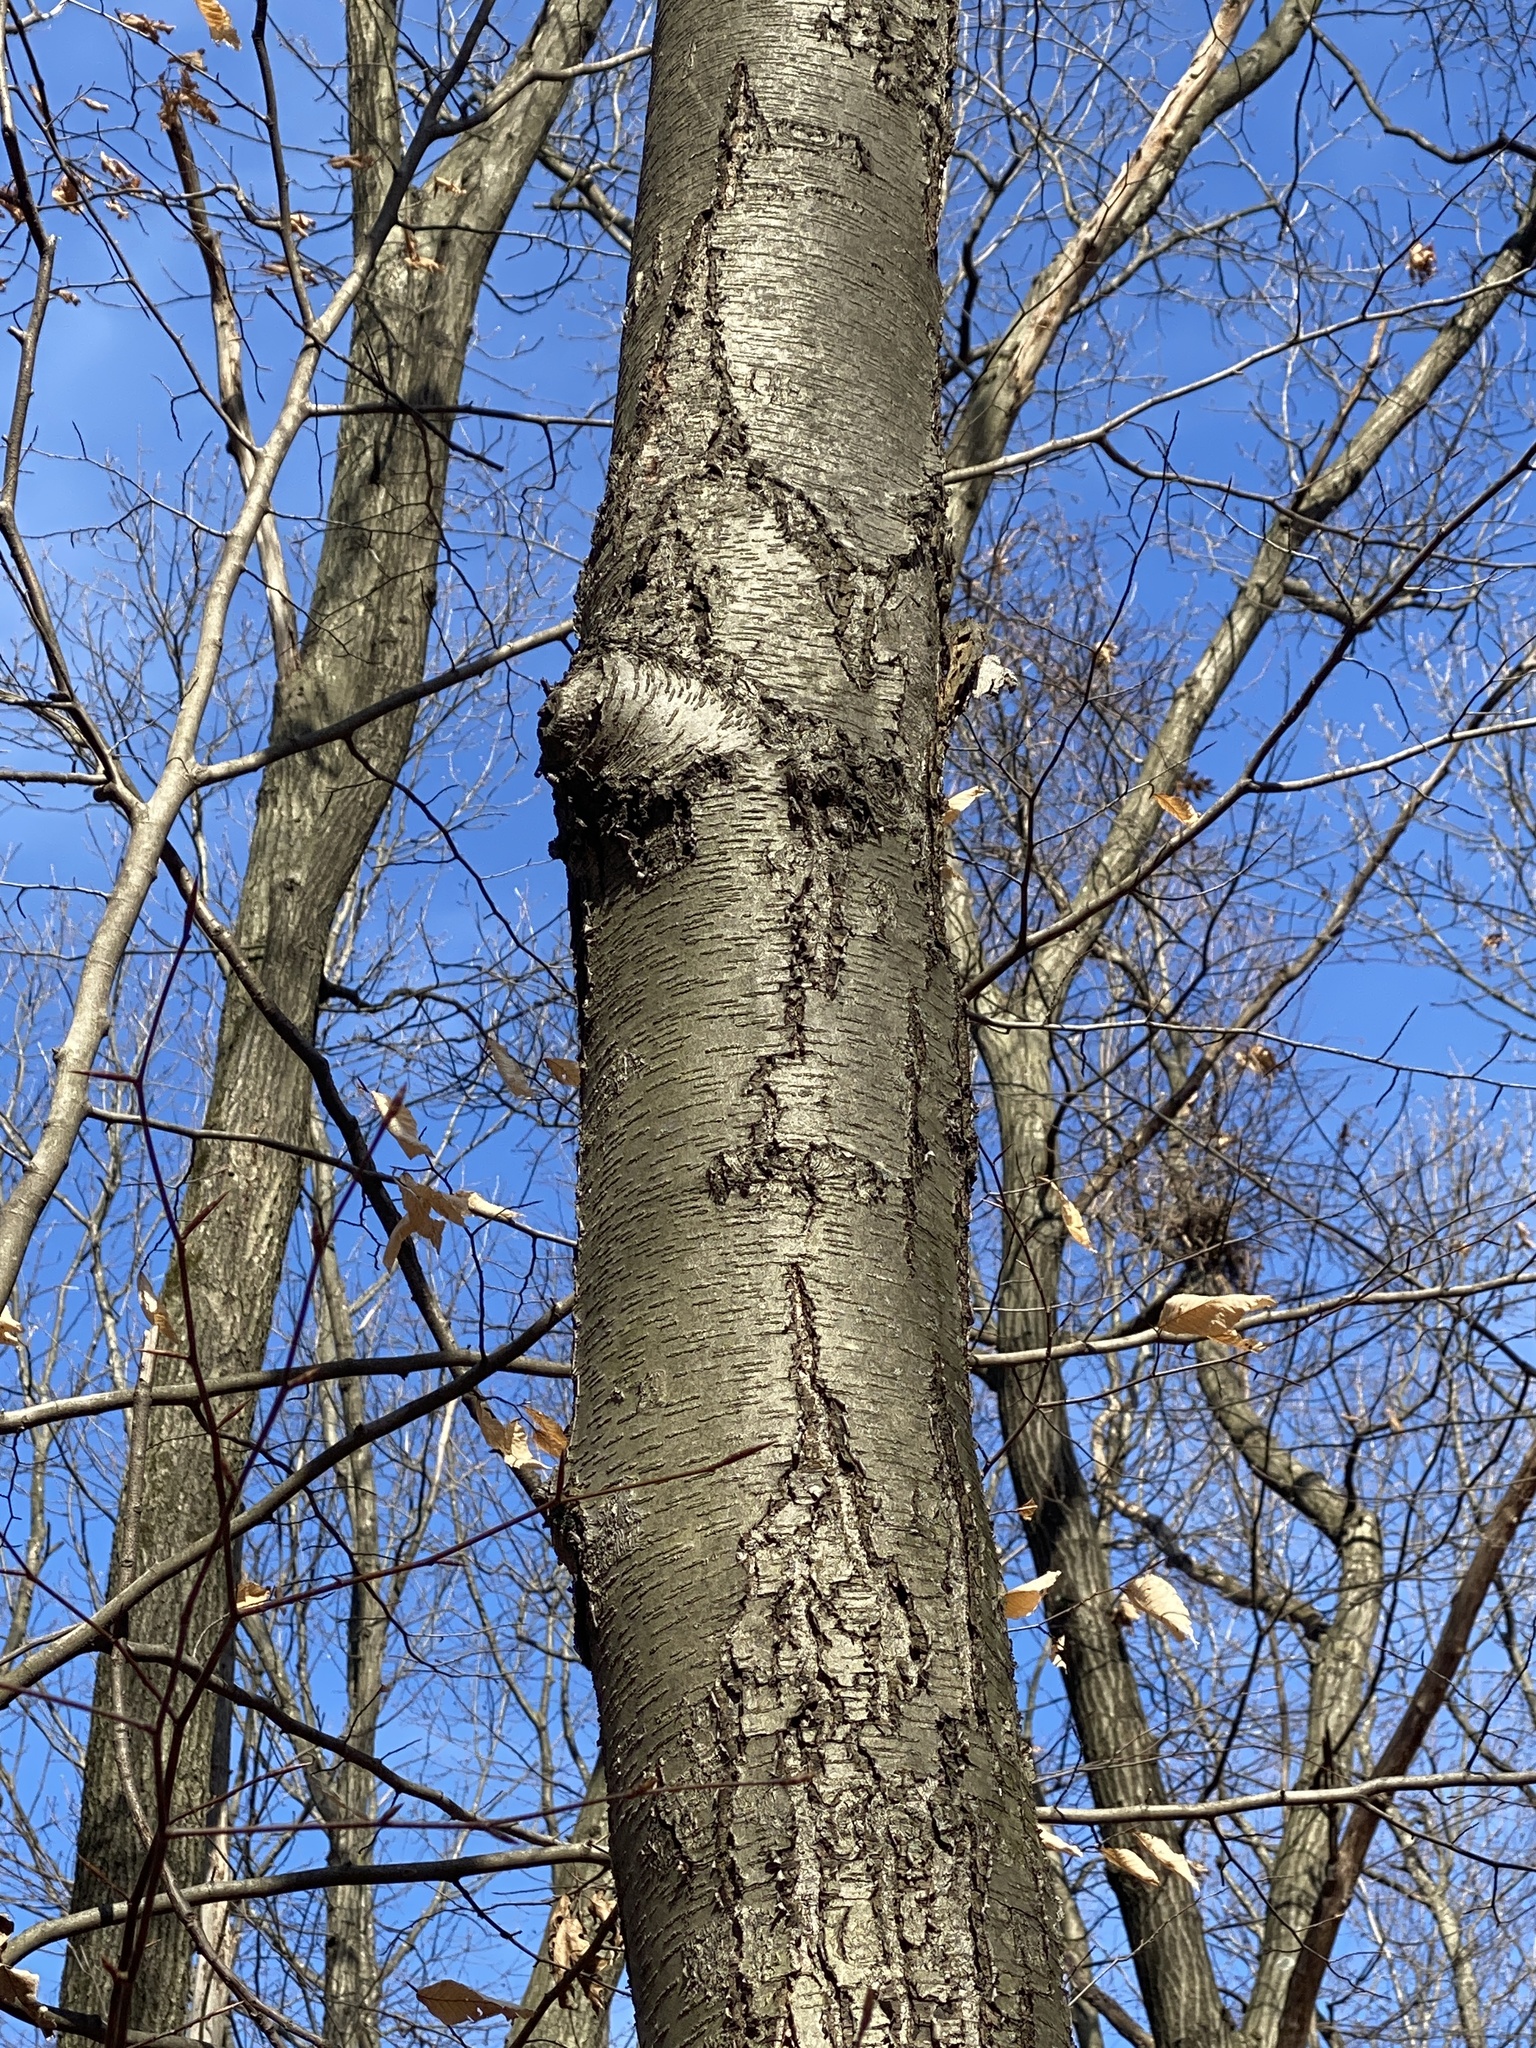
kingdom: Plantae
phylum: Tracheophyta
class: Magnoliopsida
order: Fagales
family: Betulaceae
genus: Betula
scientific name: Betula lenta
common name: Black birch
